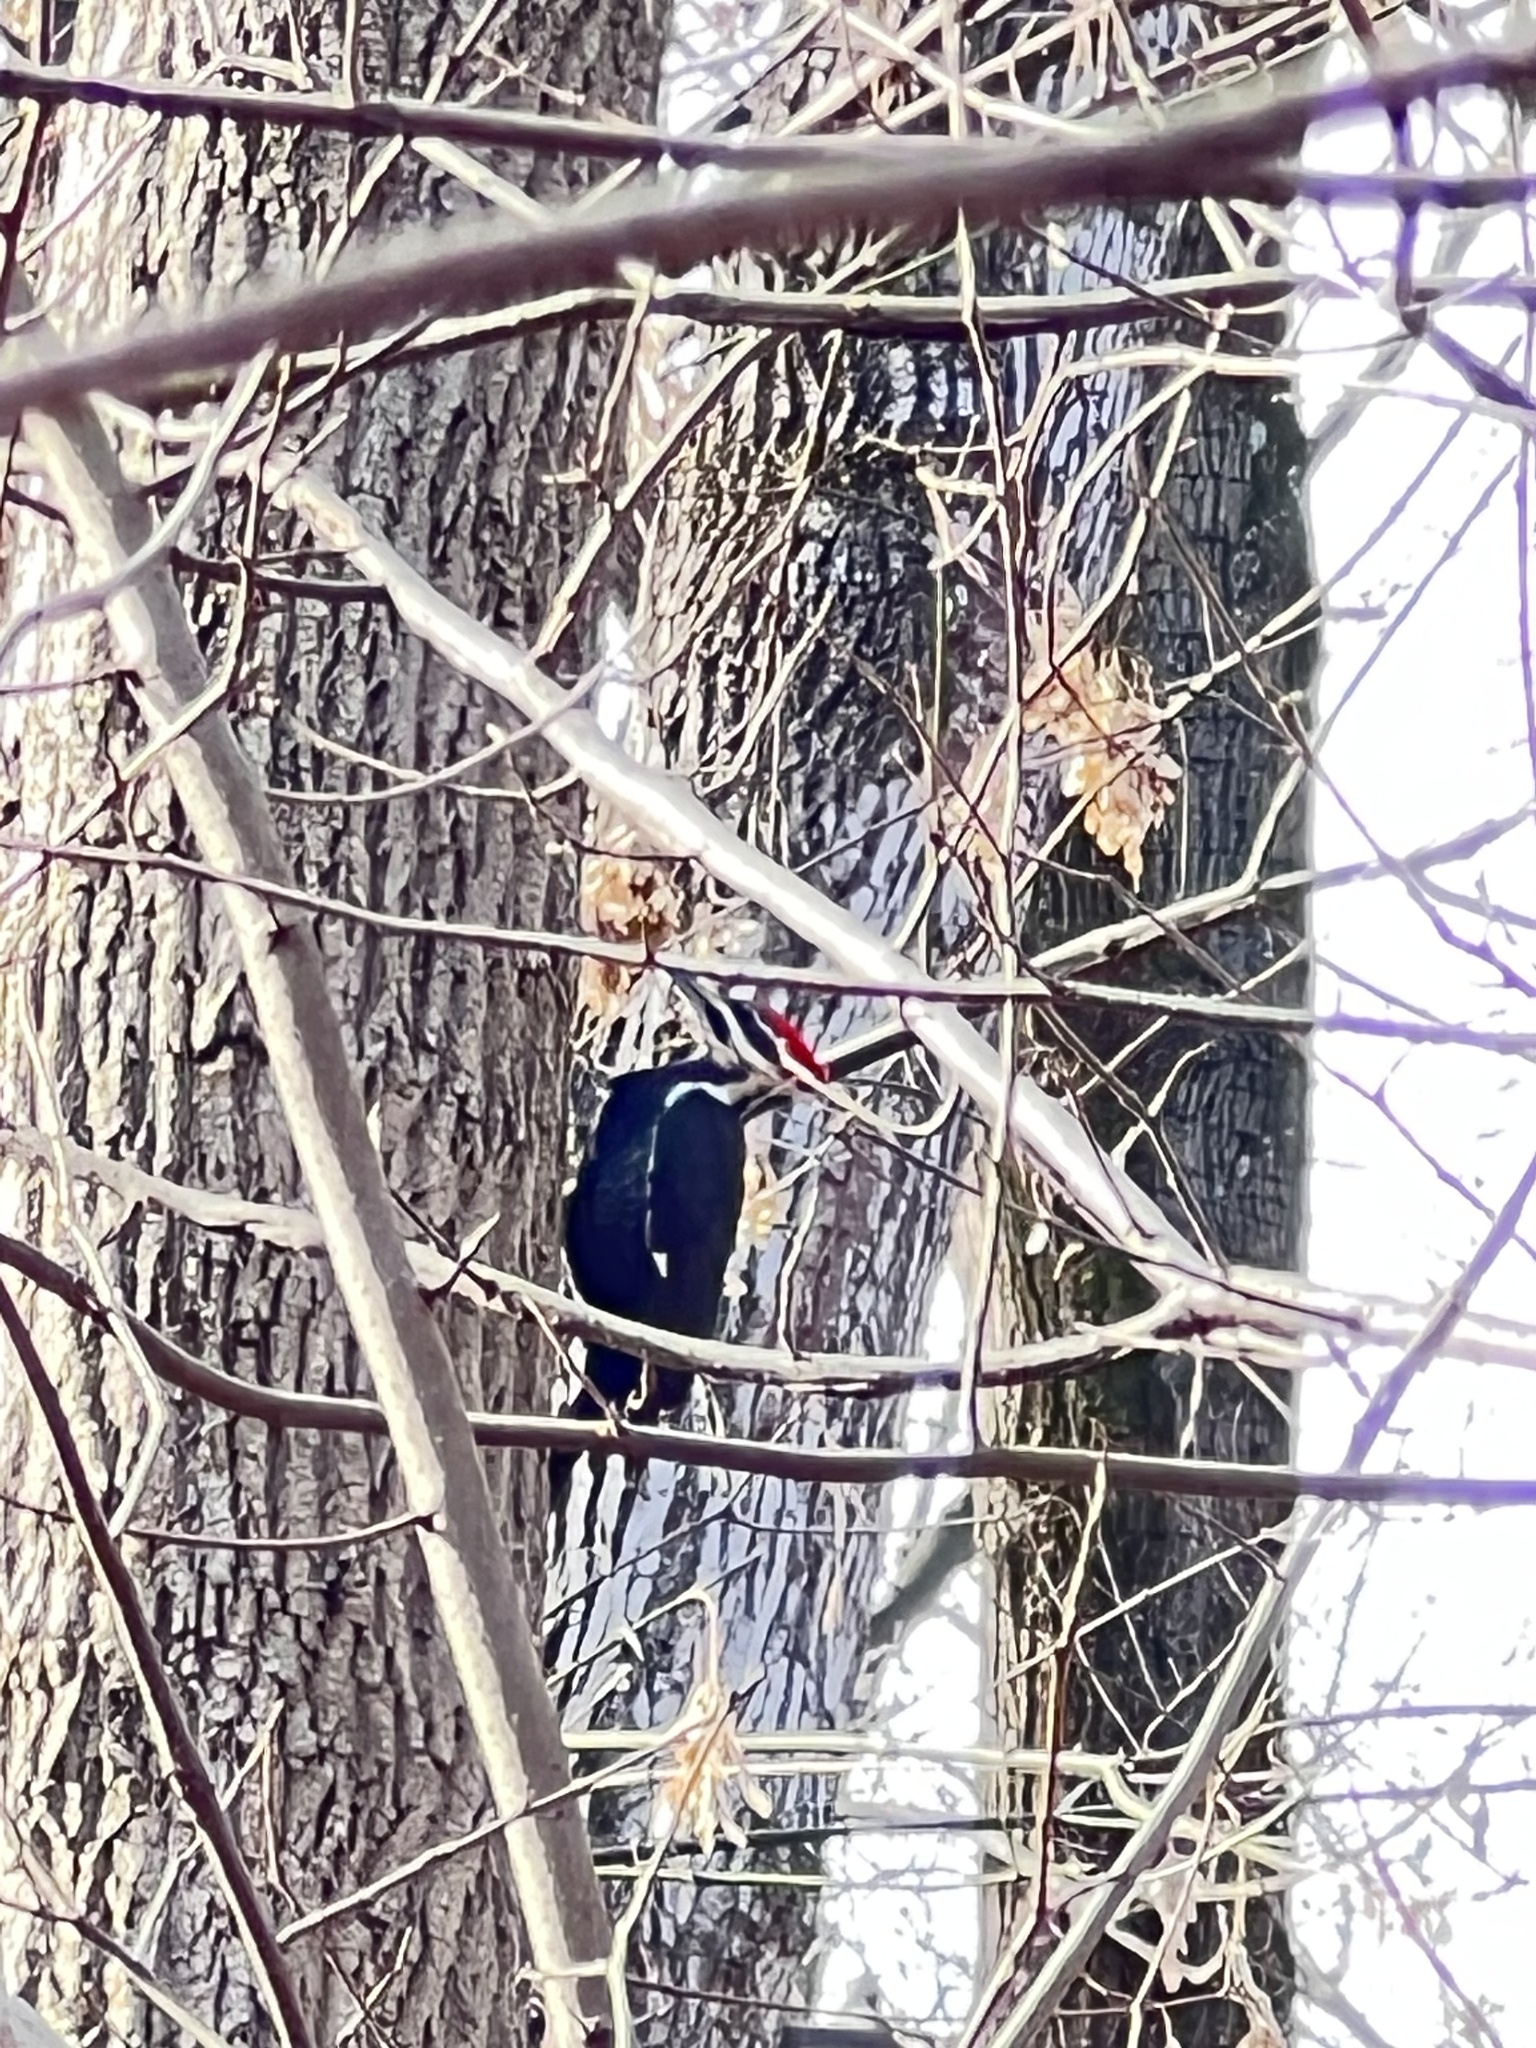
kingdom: Animalia
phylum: Chordata
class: Aves
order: Piciformes
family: Picidae
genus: Dryocopus
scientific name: Dryocopus pileatus
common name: Pileated woodpecker
